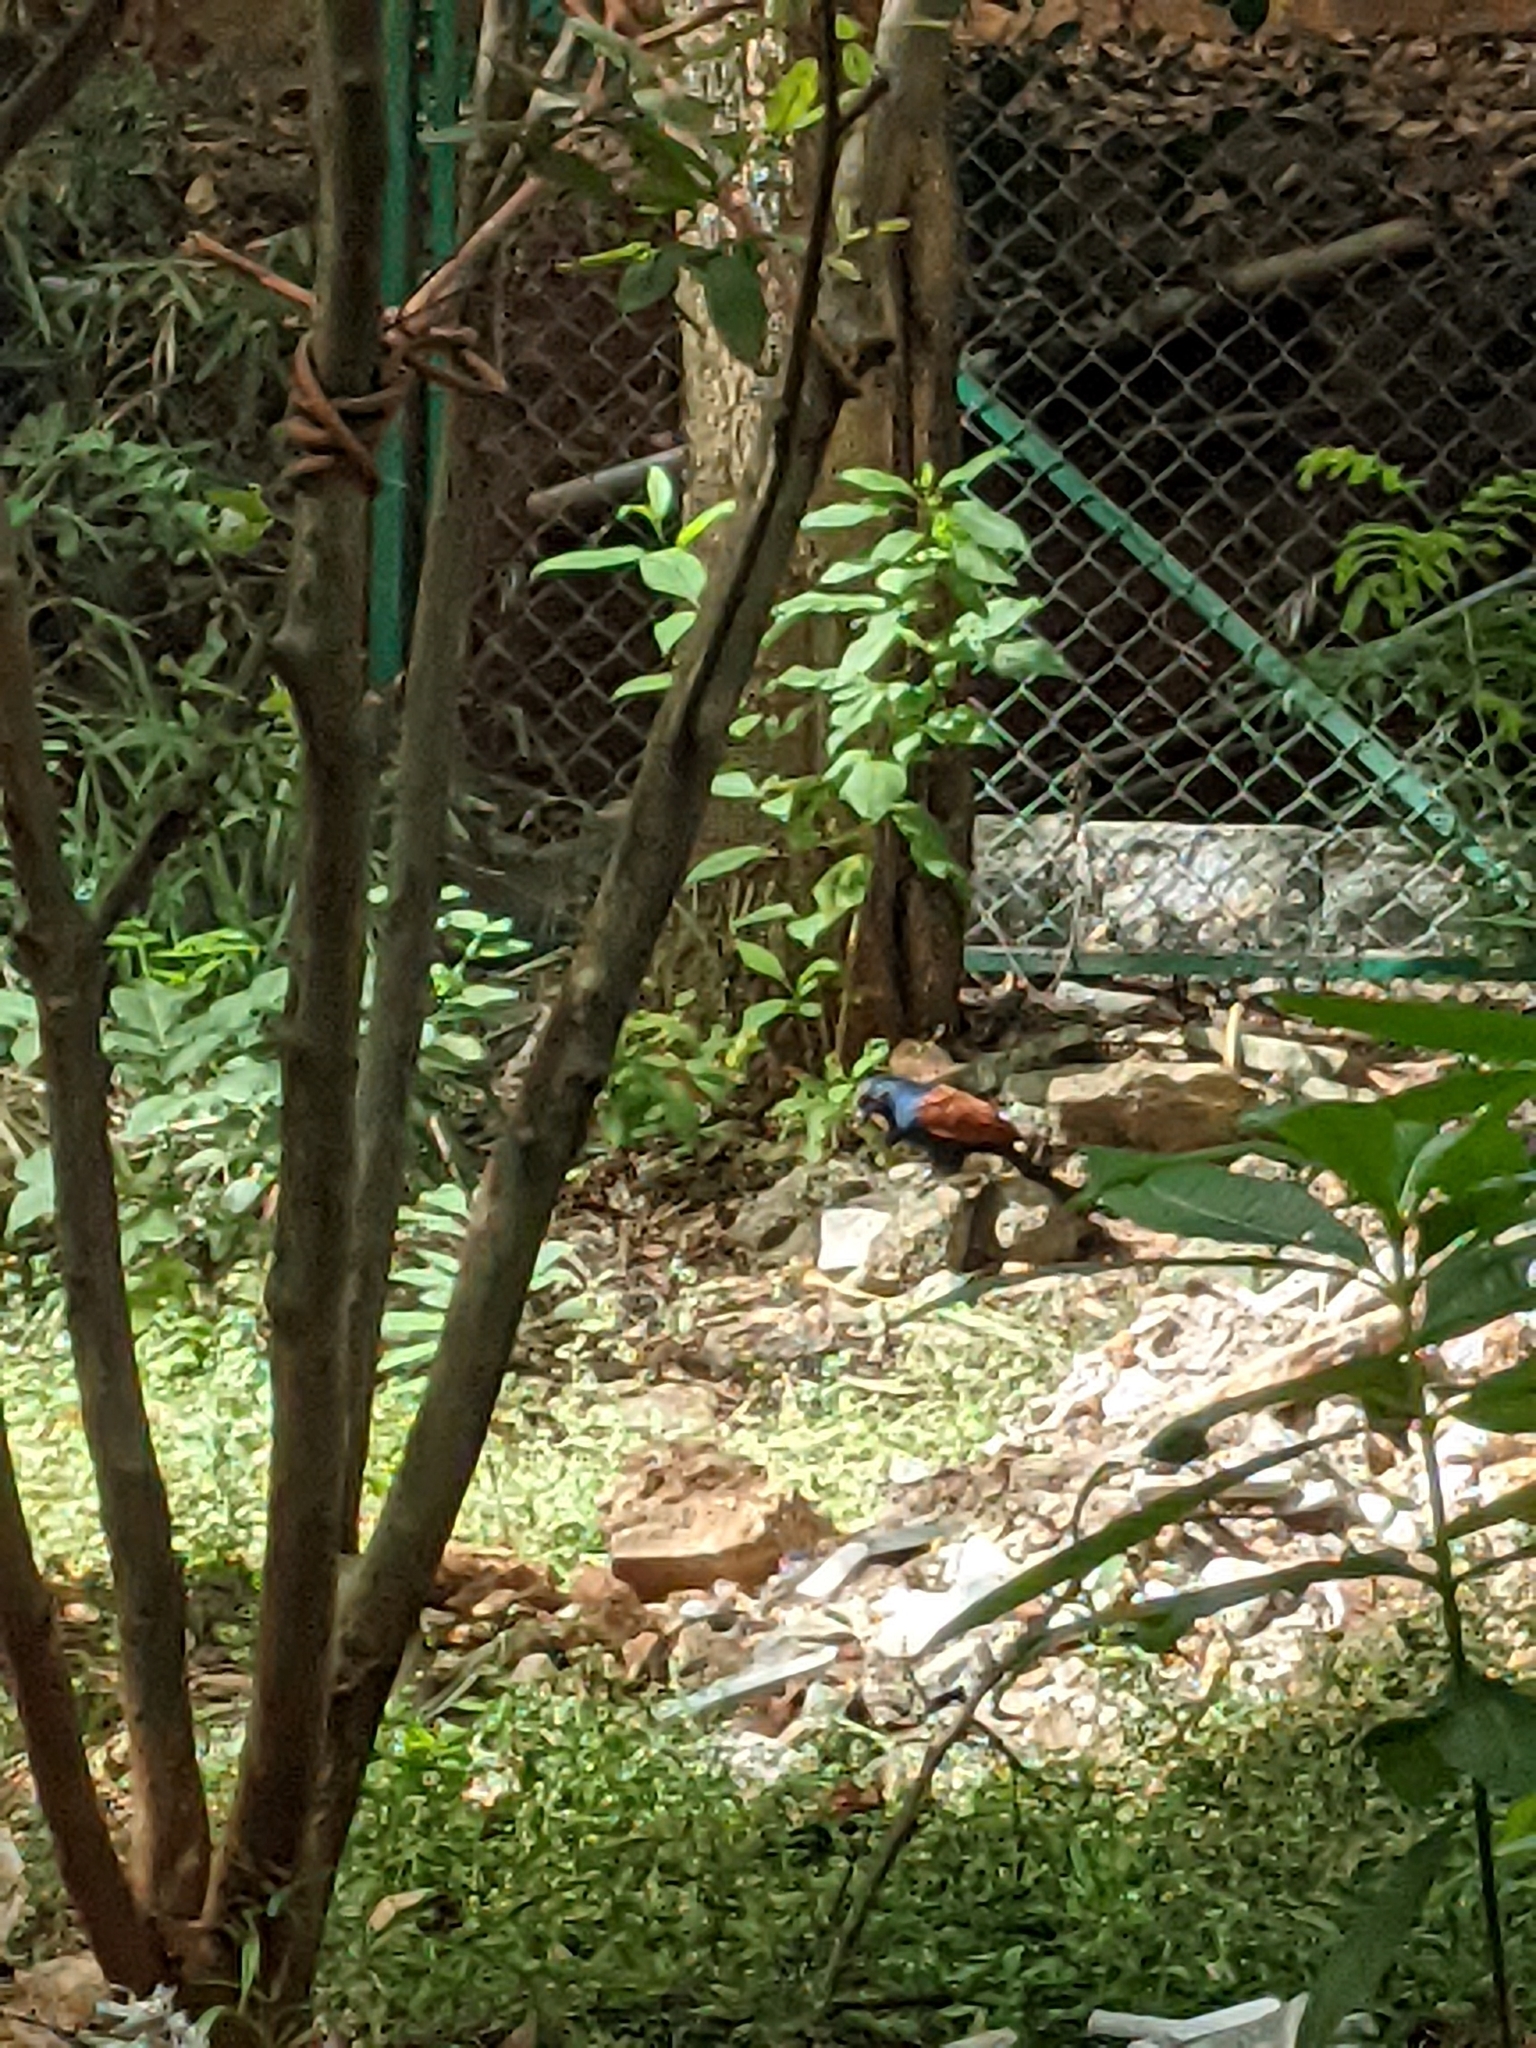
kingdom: Animalia
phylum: Chordata
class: Aves
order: Cuculiformes
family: Cuculidae
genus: Centropus
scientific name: Centropus sinensis
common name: Greater coucal
